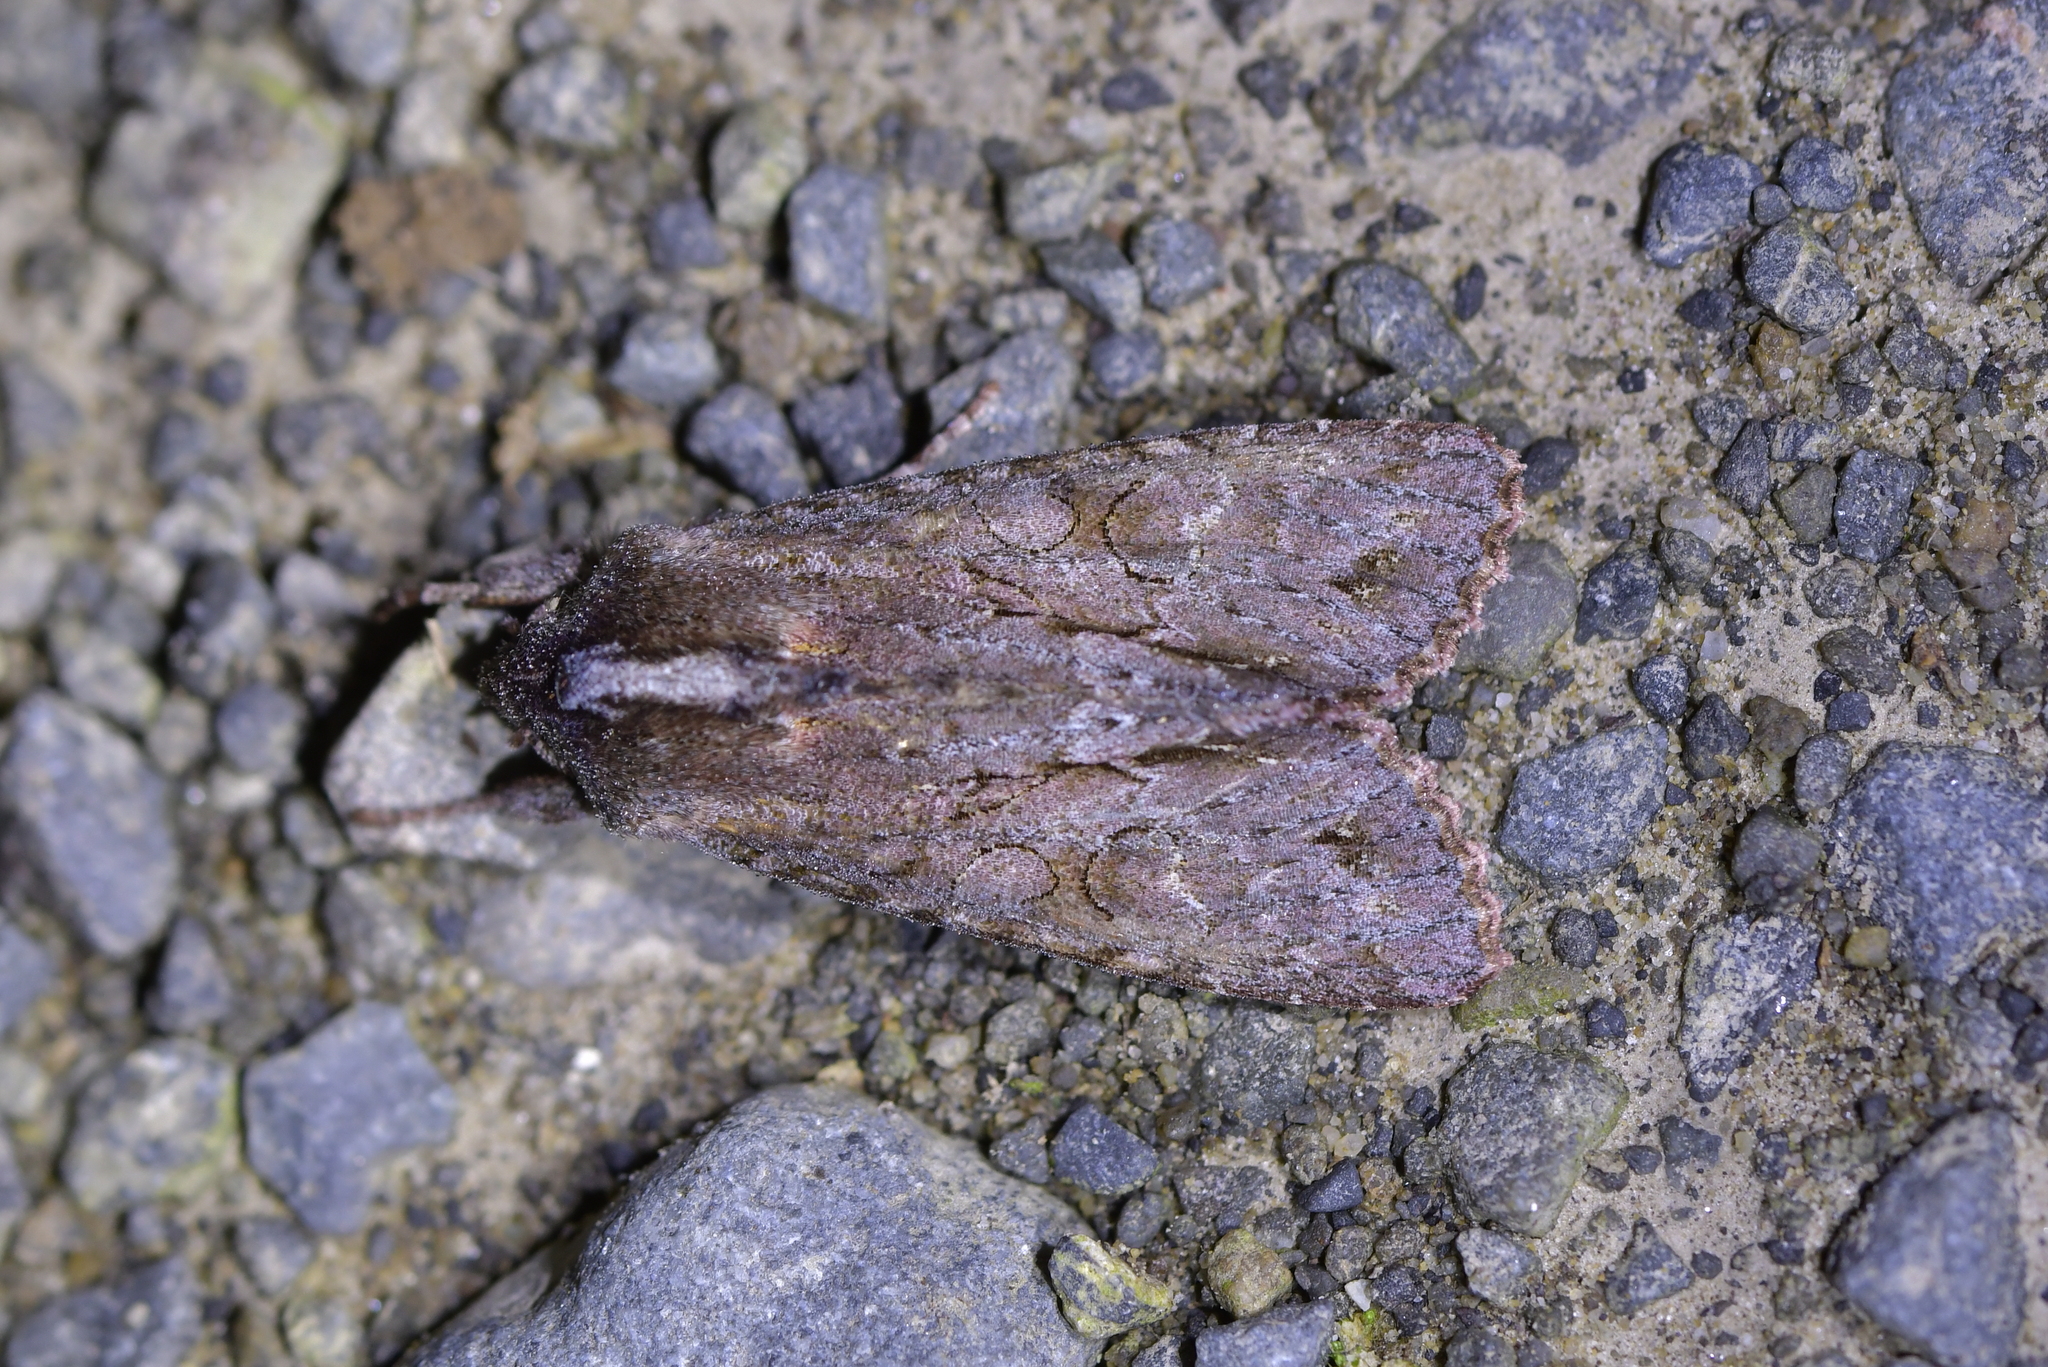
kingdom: Animalia
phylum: Arthropoda
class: Insecta
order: Lepidoptera
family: Noctuidae
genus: Ichneutica
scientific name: Ichneutica
